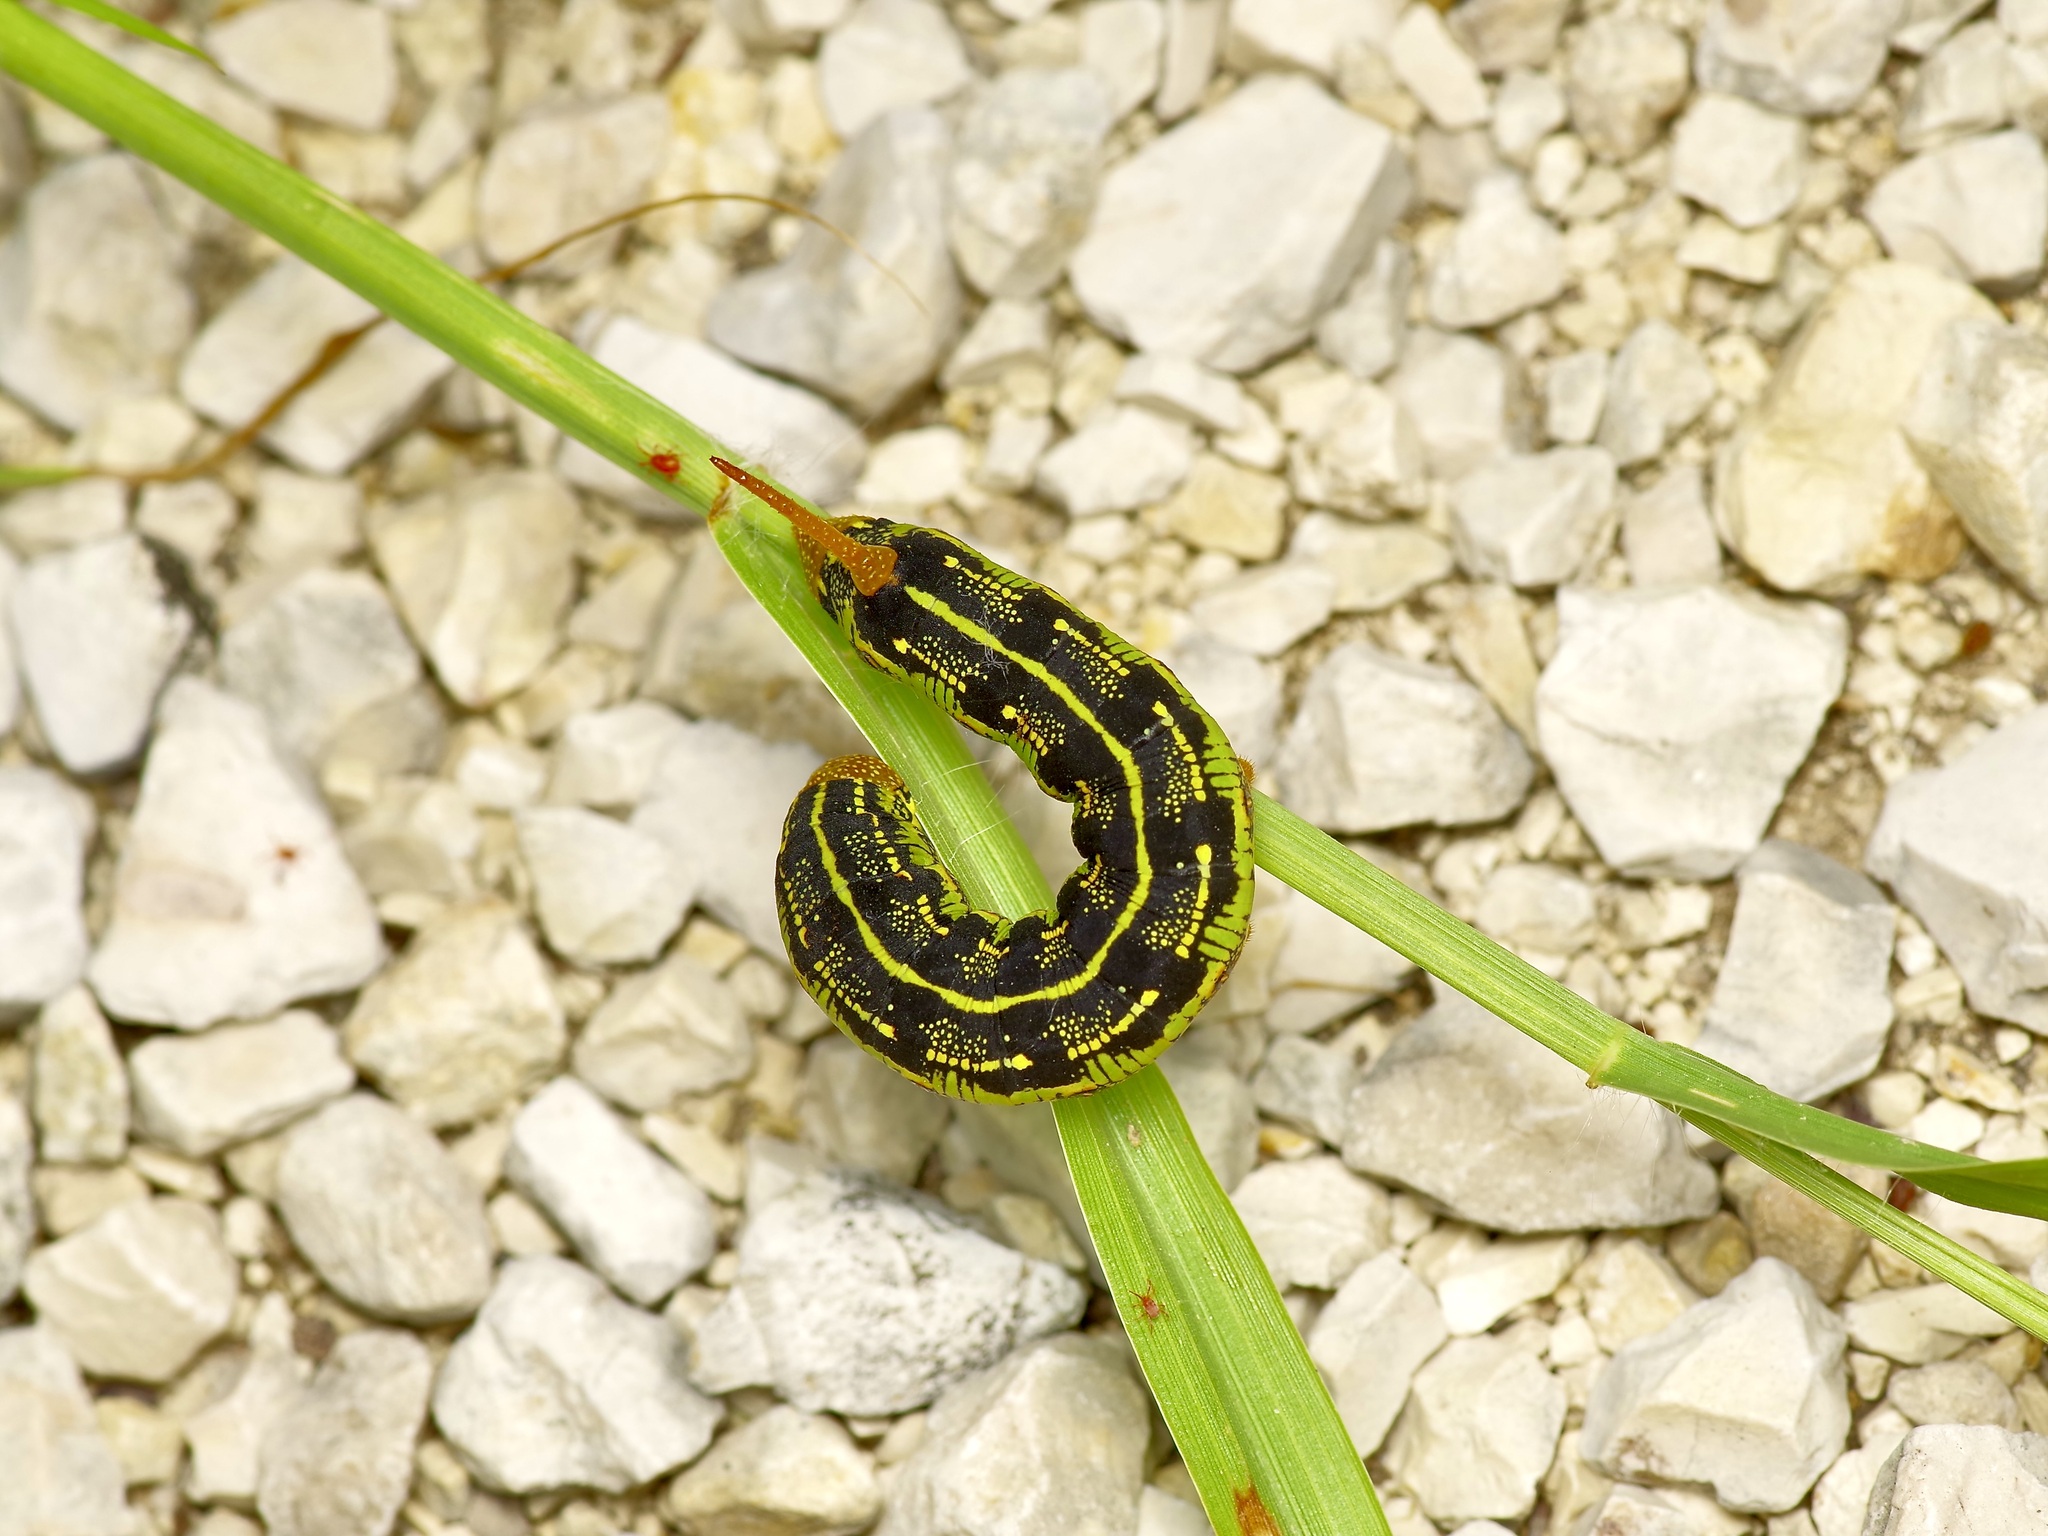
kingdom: Animalia
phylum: Arthropoda
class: Insecta
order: Lepidoptera
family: Sphingidae
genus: Hyles
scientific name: Hyles lineata
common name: White-lined sphinx
